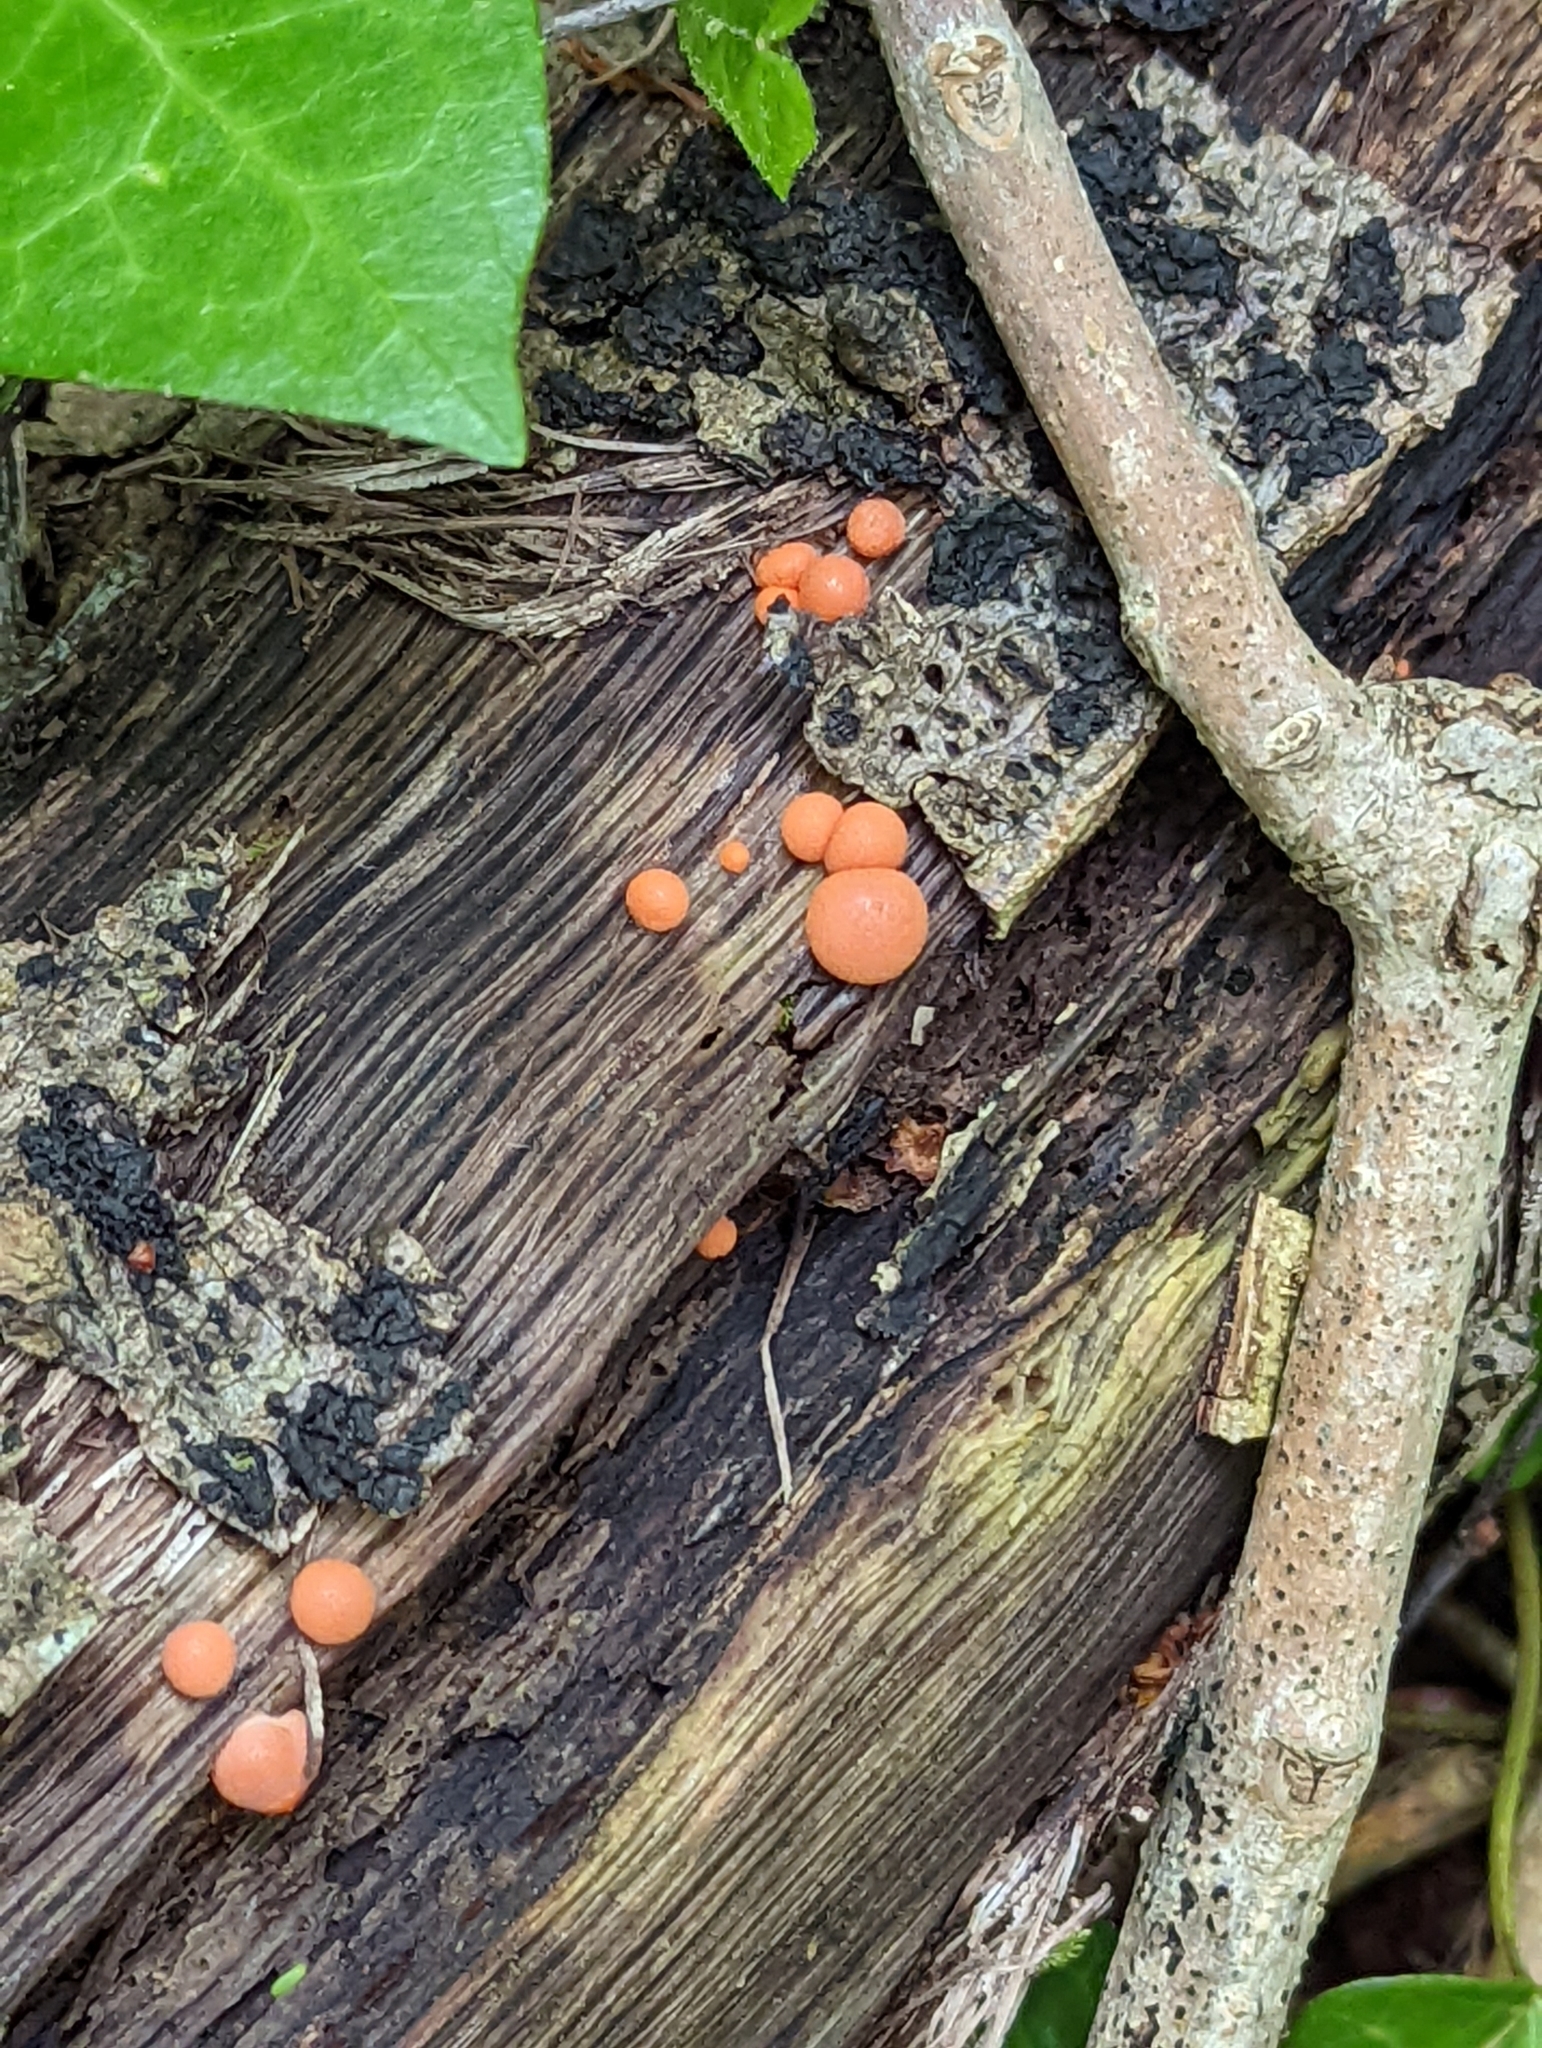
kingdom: Protozoa
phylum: Mycetozoa
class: Myxomycetes
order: Cribrariales
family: Tubiferaceae
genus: Lycogala
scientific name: Lycogala epidendrum
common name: Wolf's milk
